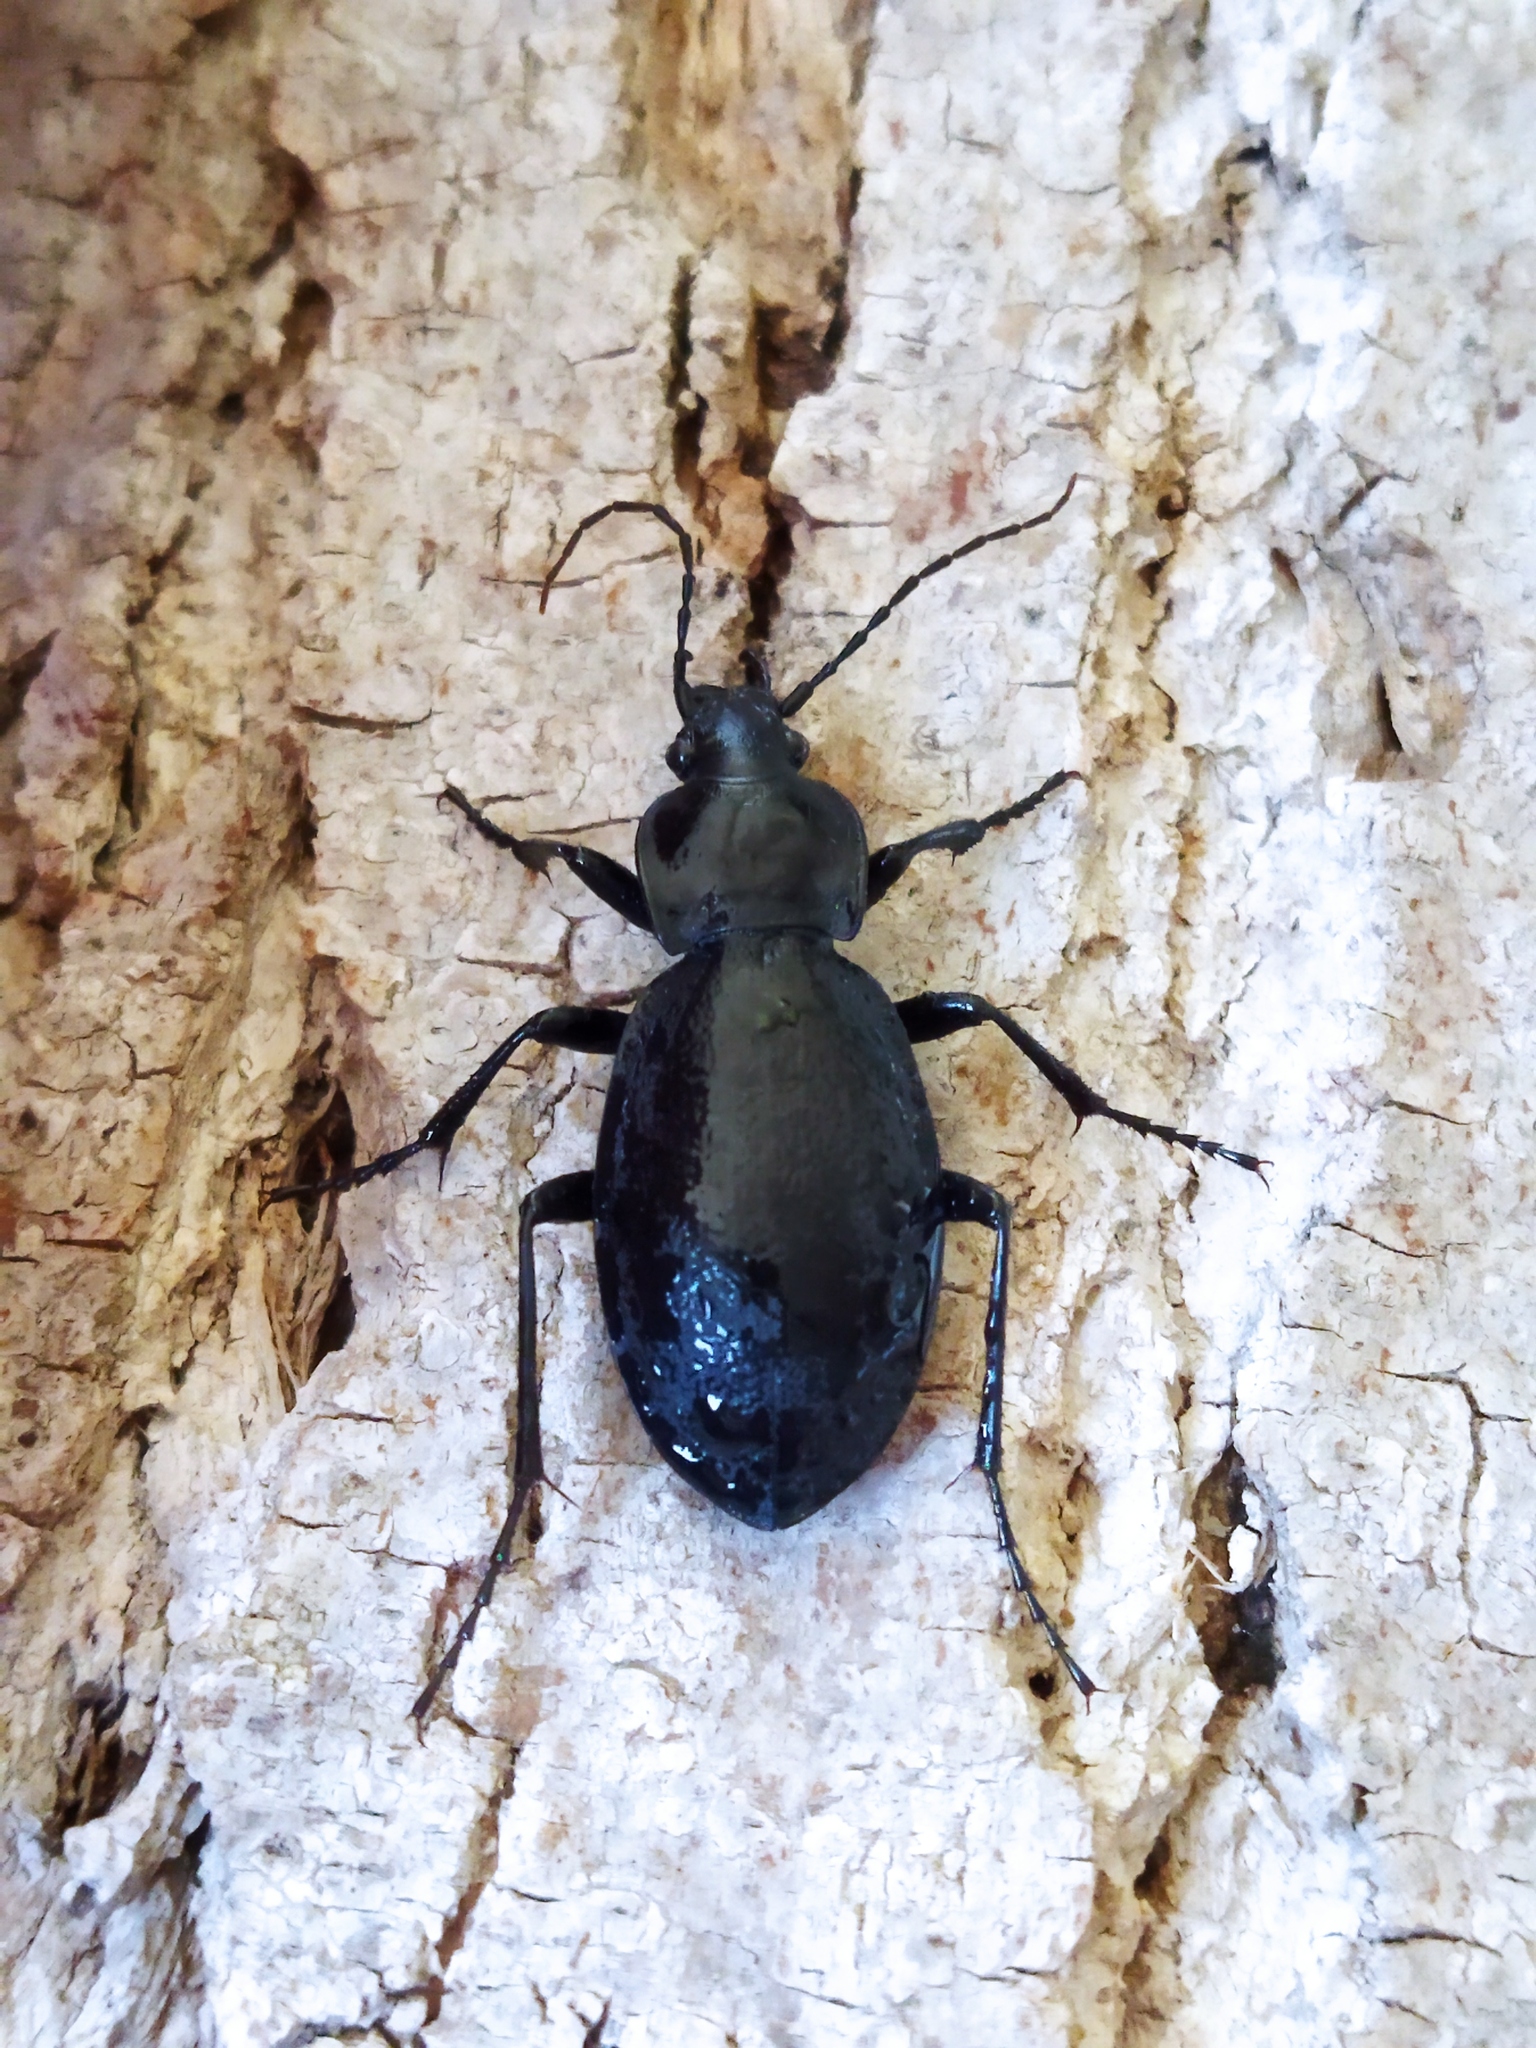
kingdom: Animalia
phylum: Arthropoda
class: Insecta
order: Coleoptera
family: Carabidae
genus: Carabus
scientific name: Carabus coriaceus
